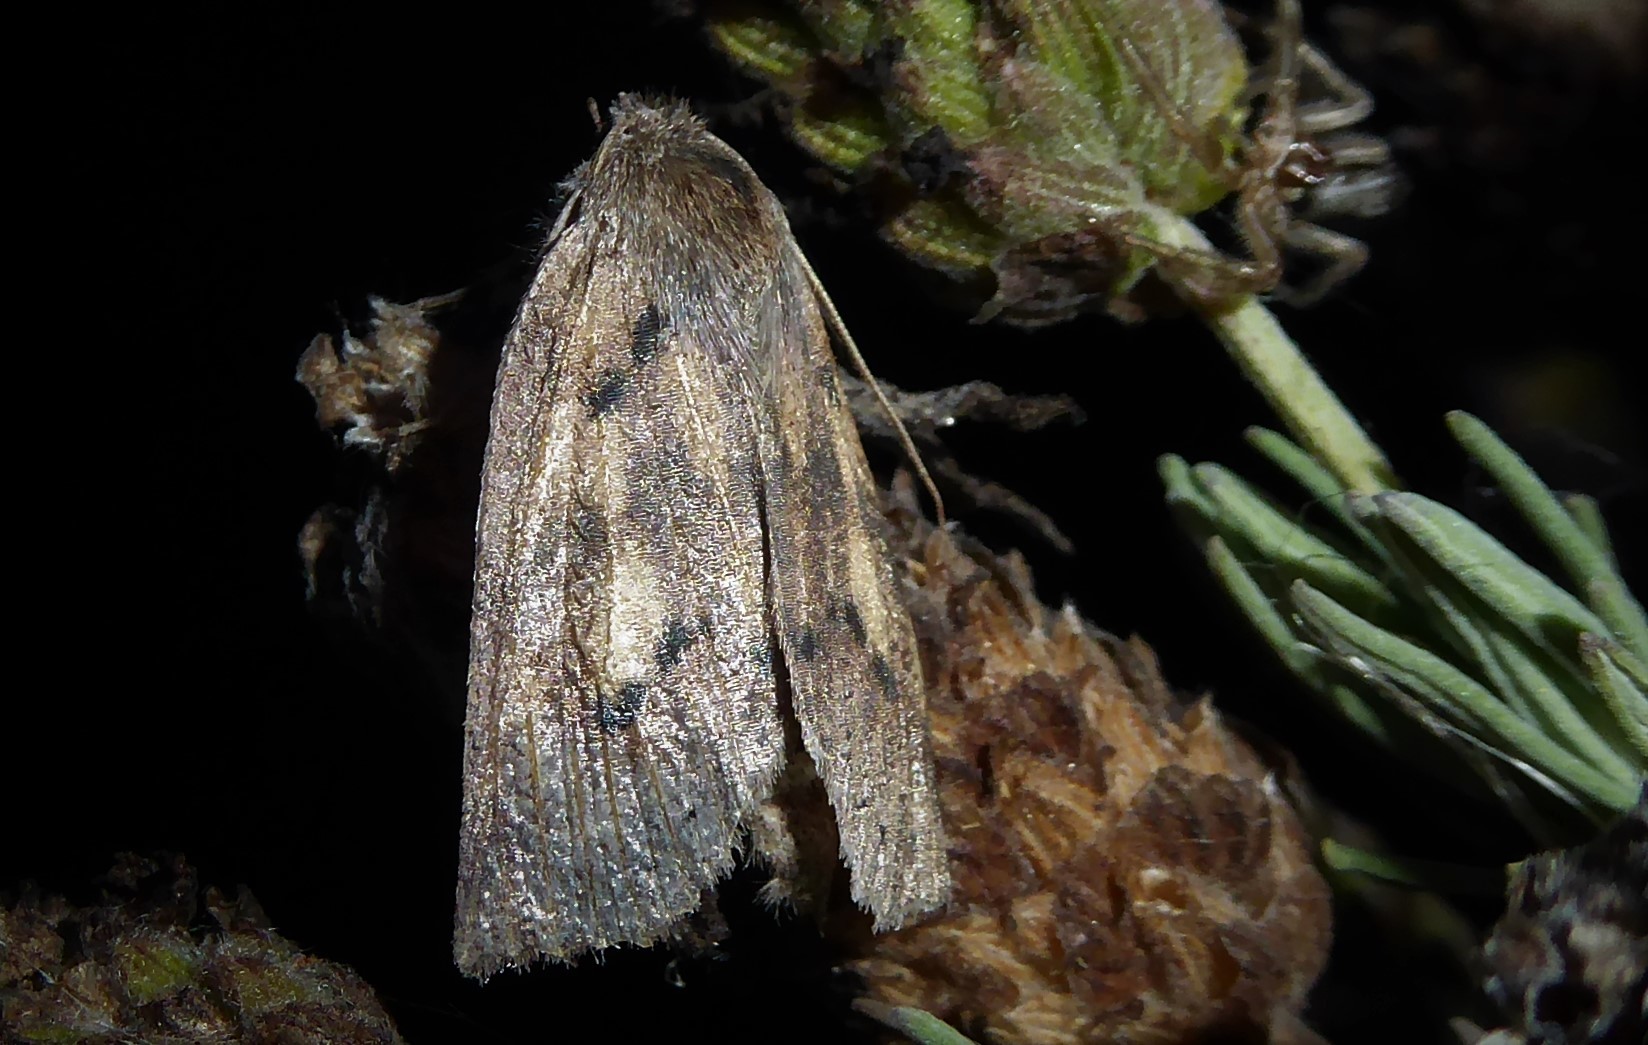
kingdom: Animalia
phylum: Arthropoda
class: Insecta
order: Lepidoptera
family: Geometridae
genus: Declana
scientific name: Declana leptomera
